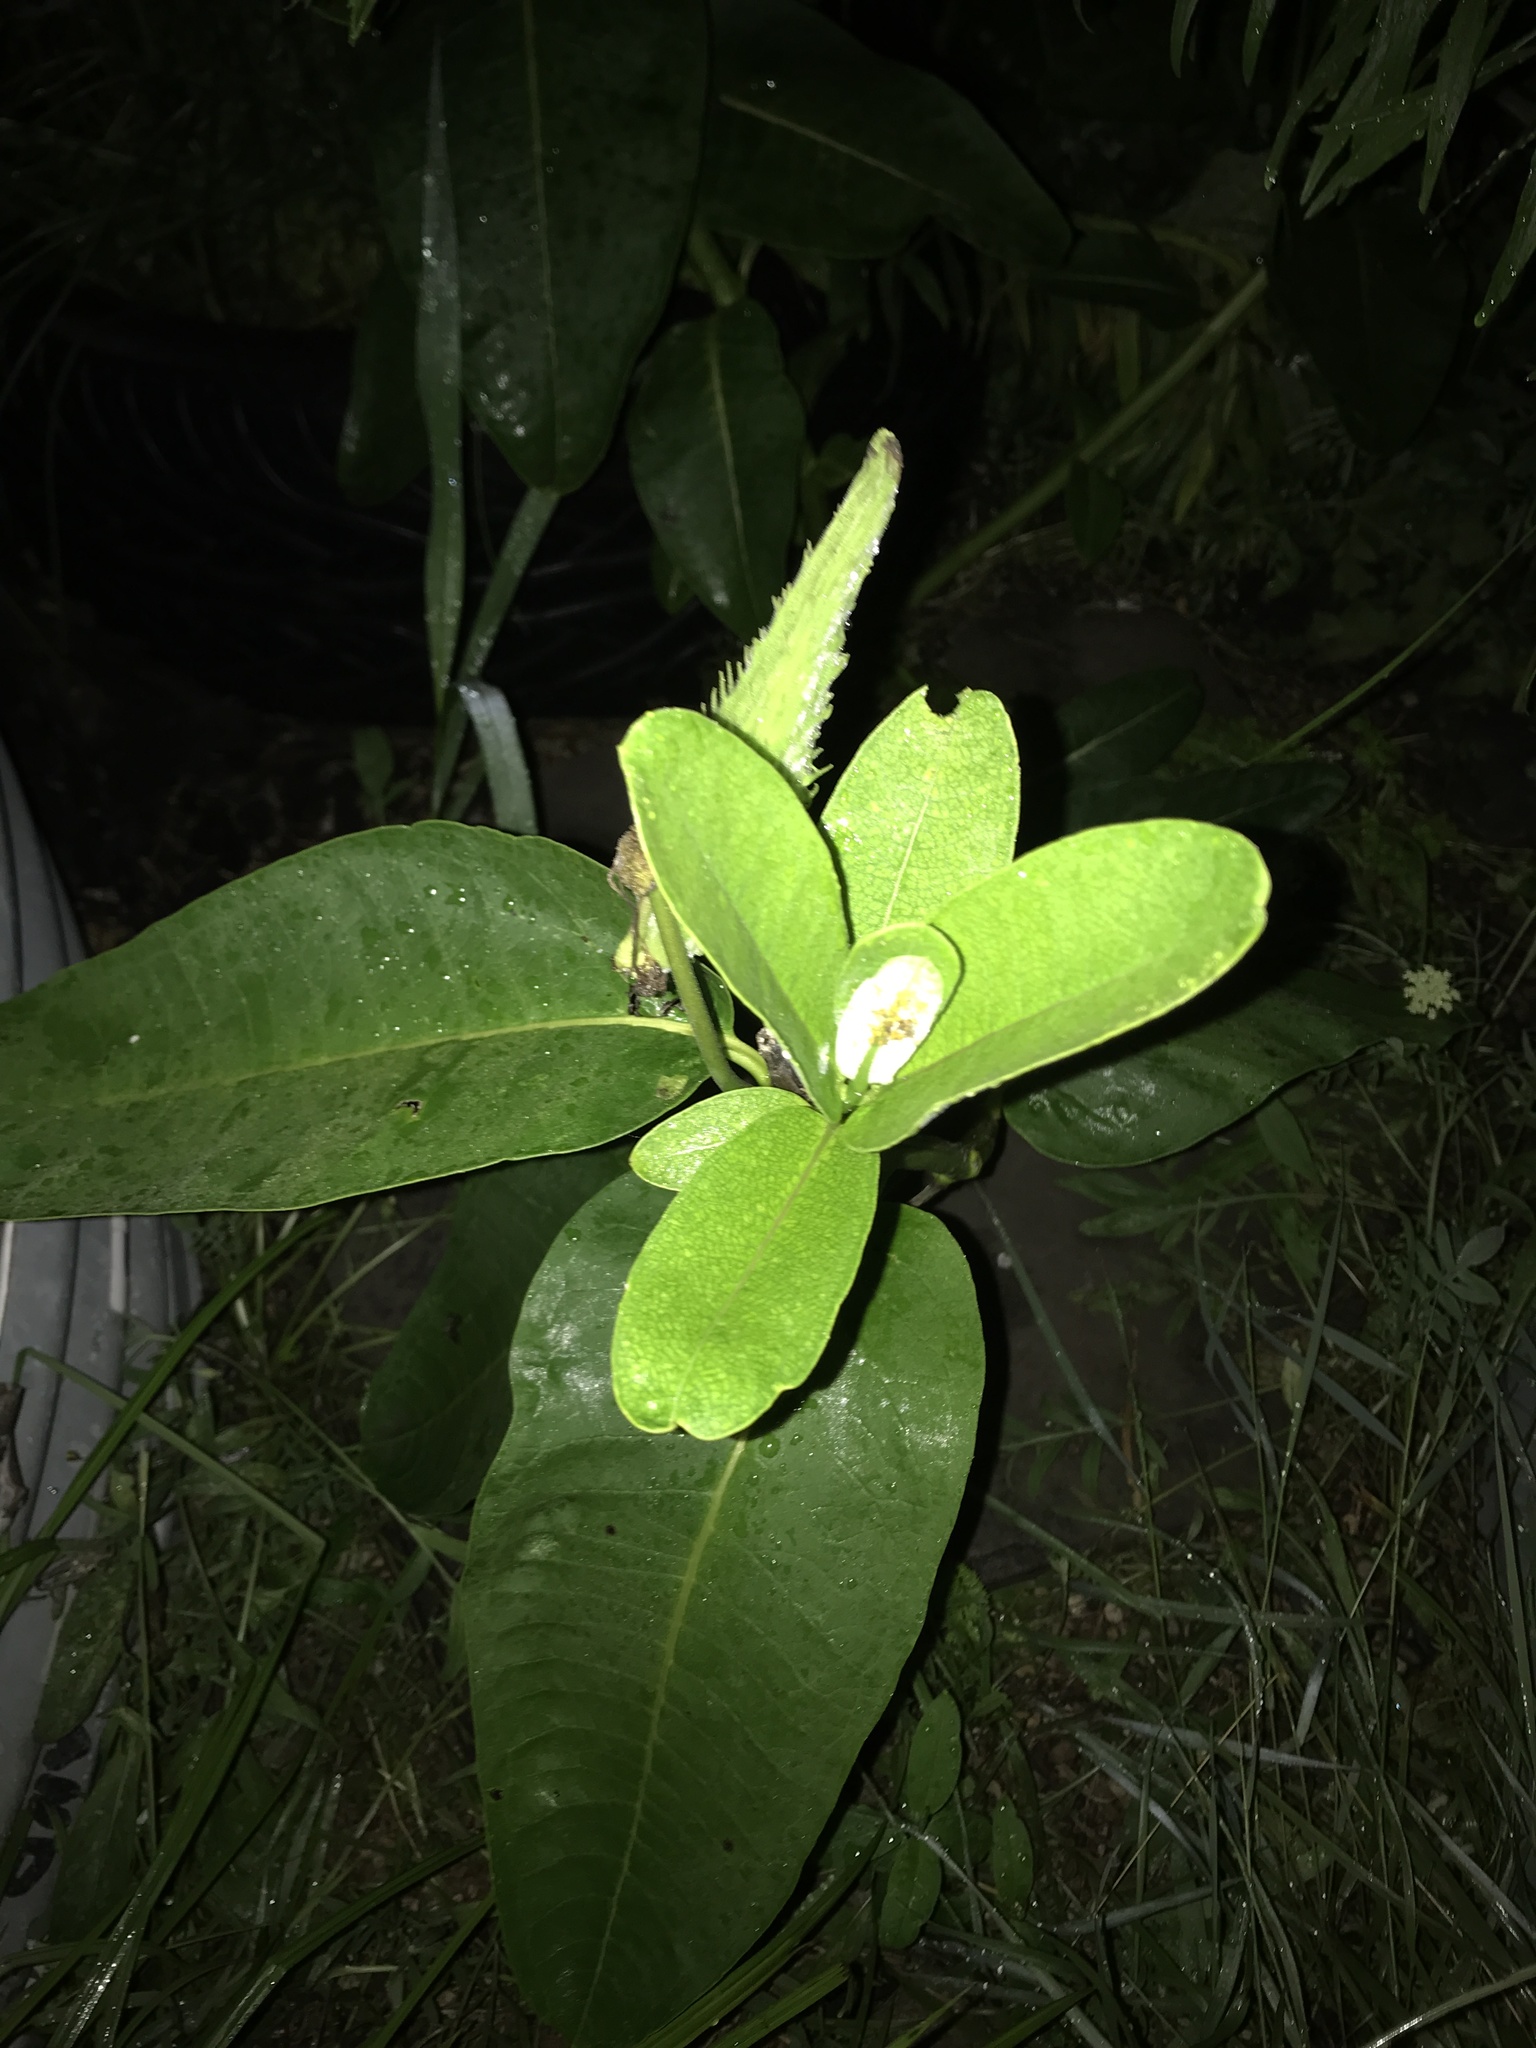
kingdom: Plantae
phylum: Tracheophyta
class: Magnoliopsida
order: Gentianales
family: Apocynaceae
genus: Asclepias
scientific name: Asclepias syriaca
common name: Common milkweed
